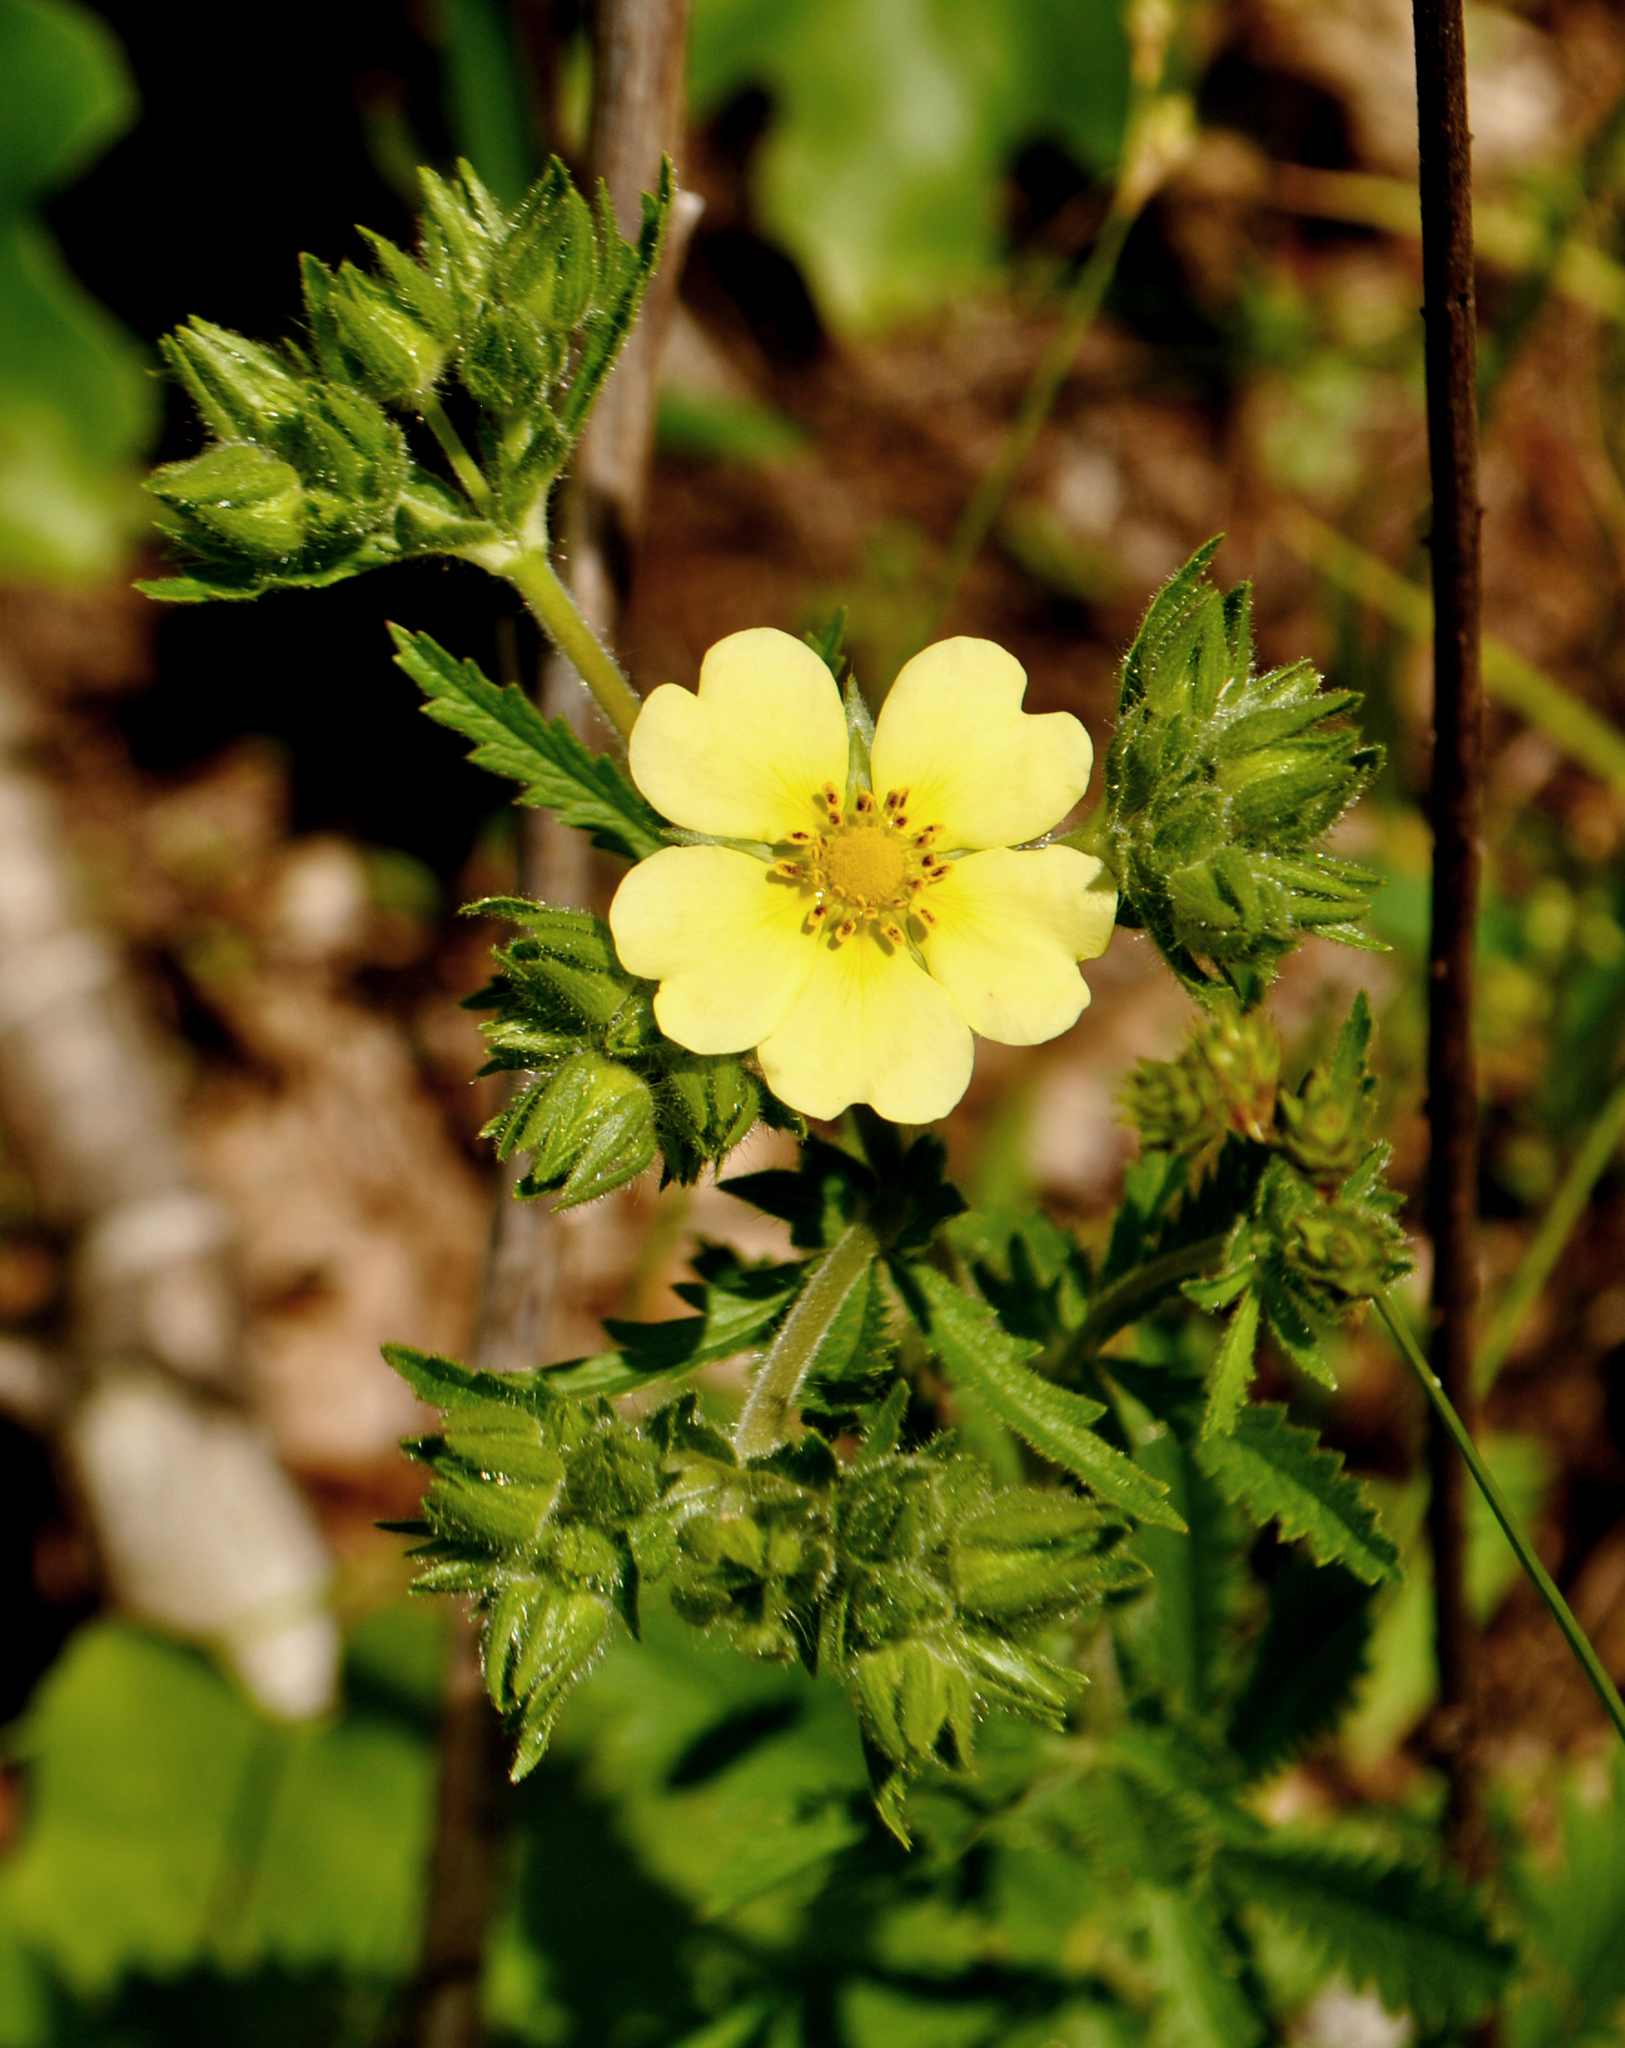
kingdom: Plantae
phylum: Tracheophyta
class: Magnoliopsida
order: Rosales
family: Rosaceae
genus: Potentilla
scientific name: Potentilla recta
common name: Sulphur cinquefoil
